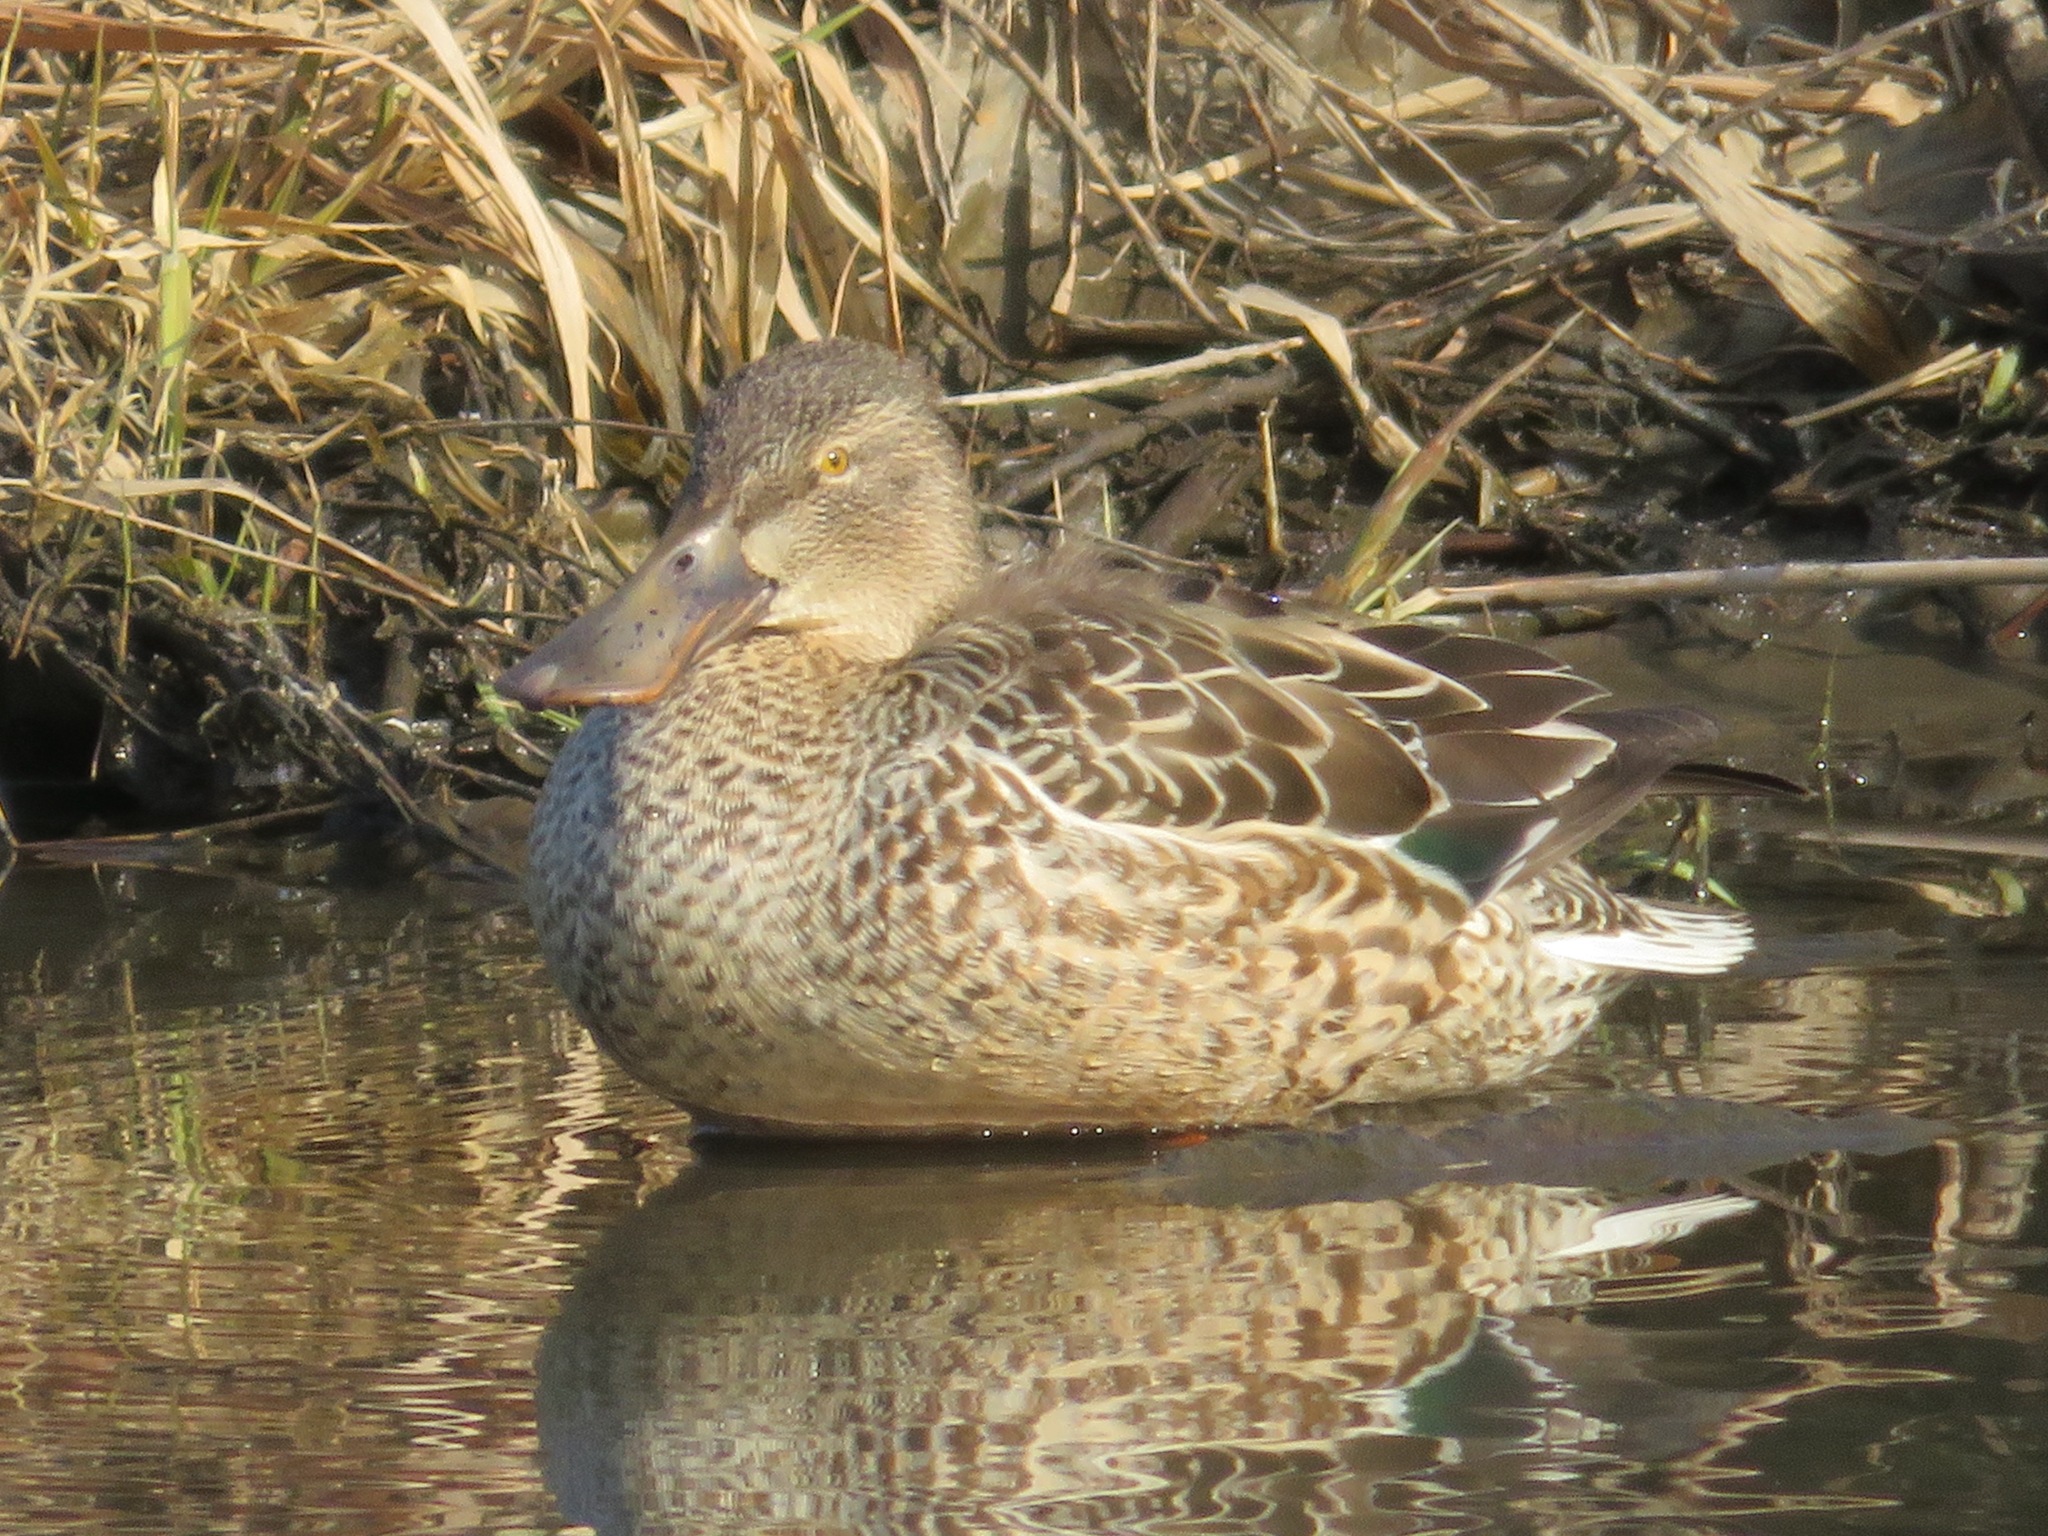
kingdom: Animalia
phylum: Chordata
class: Aves
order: Anseriformes
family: Anatidae
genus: Spatula
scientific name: Spatula clypeata
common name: Northern shoveler
